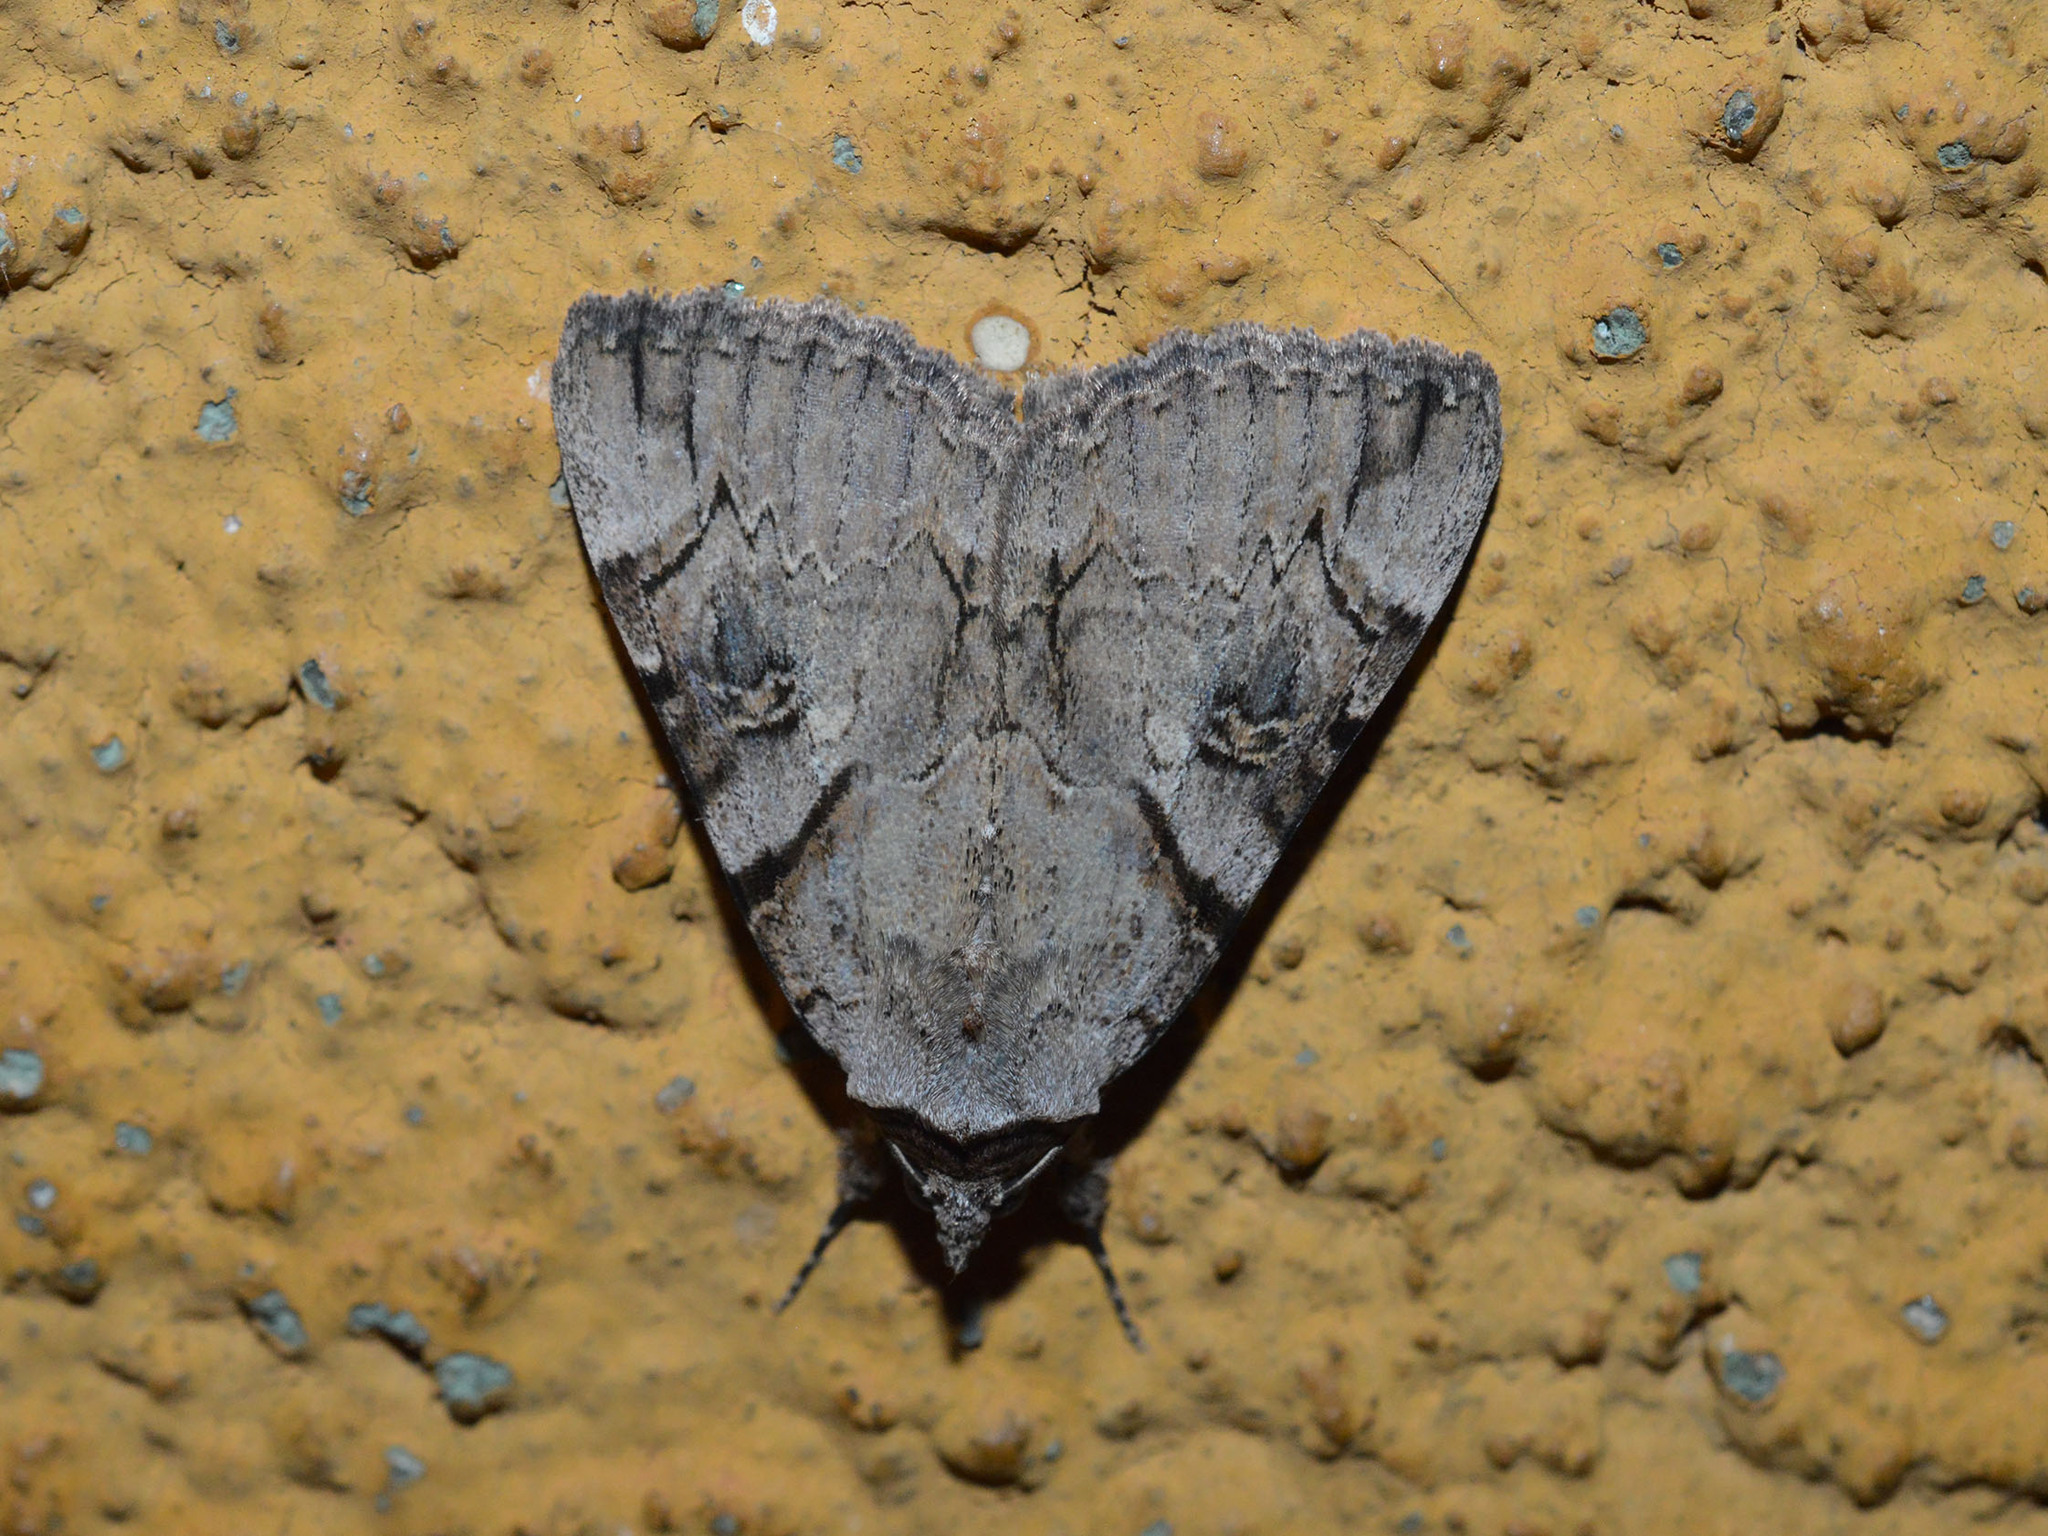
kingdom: Animalia
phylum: Arthropoda
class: Insecta
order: Lepidoptera
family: Erebidae
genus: Catocala
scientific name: Catocala hymenaea
